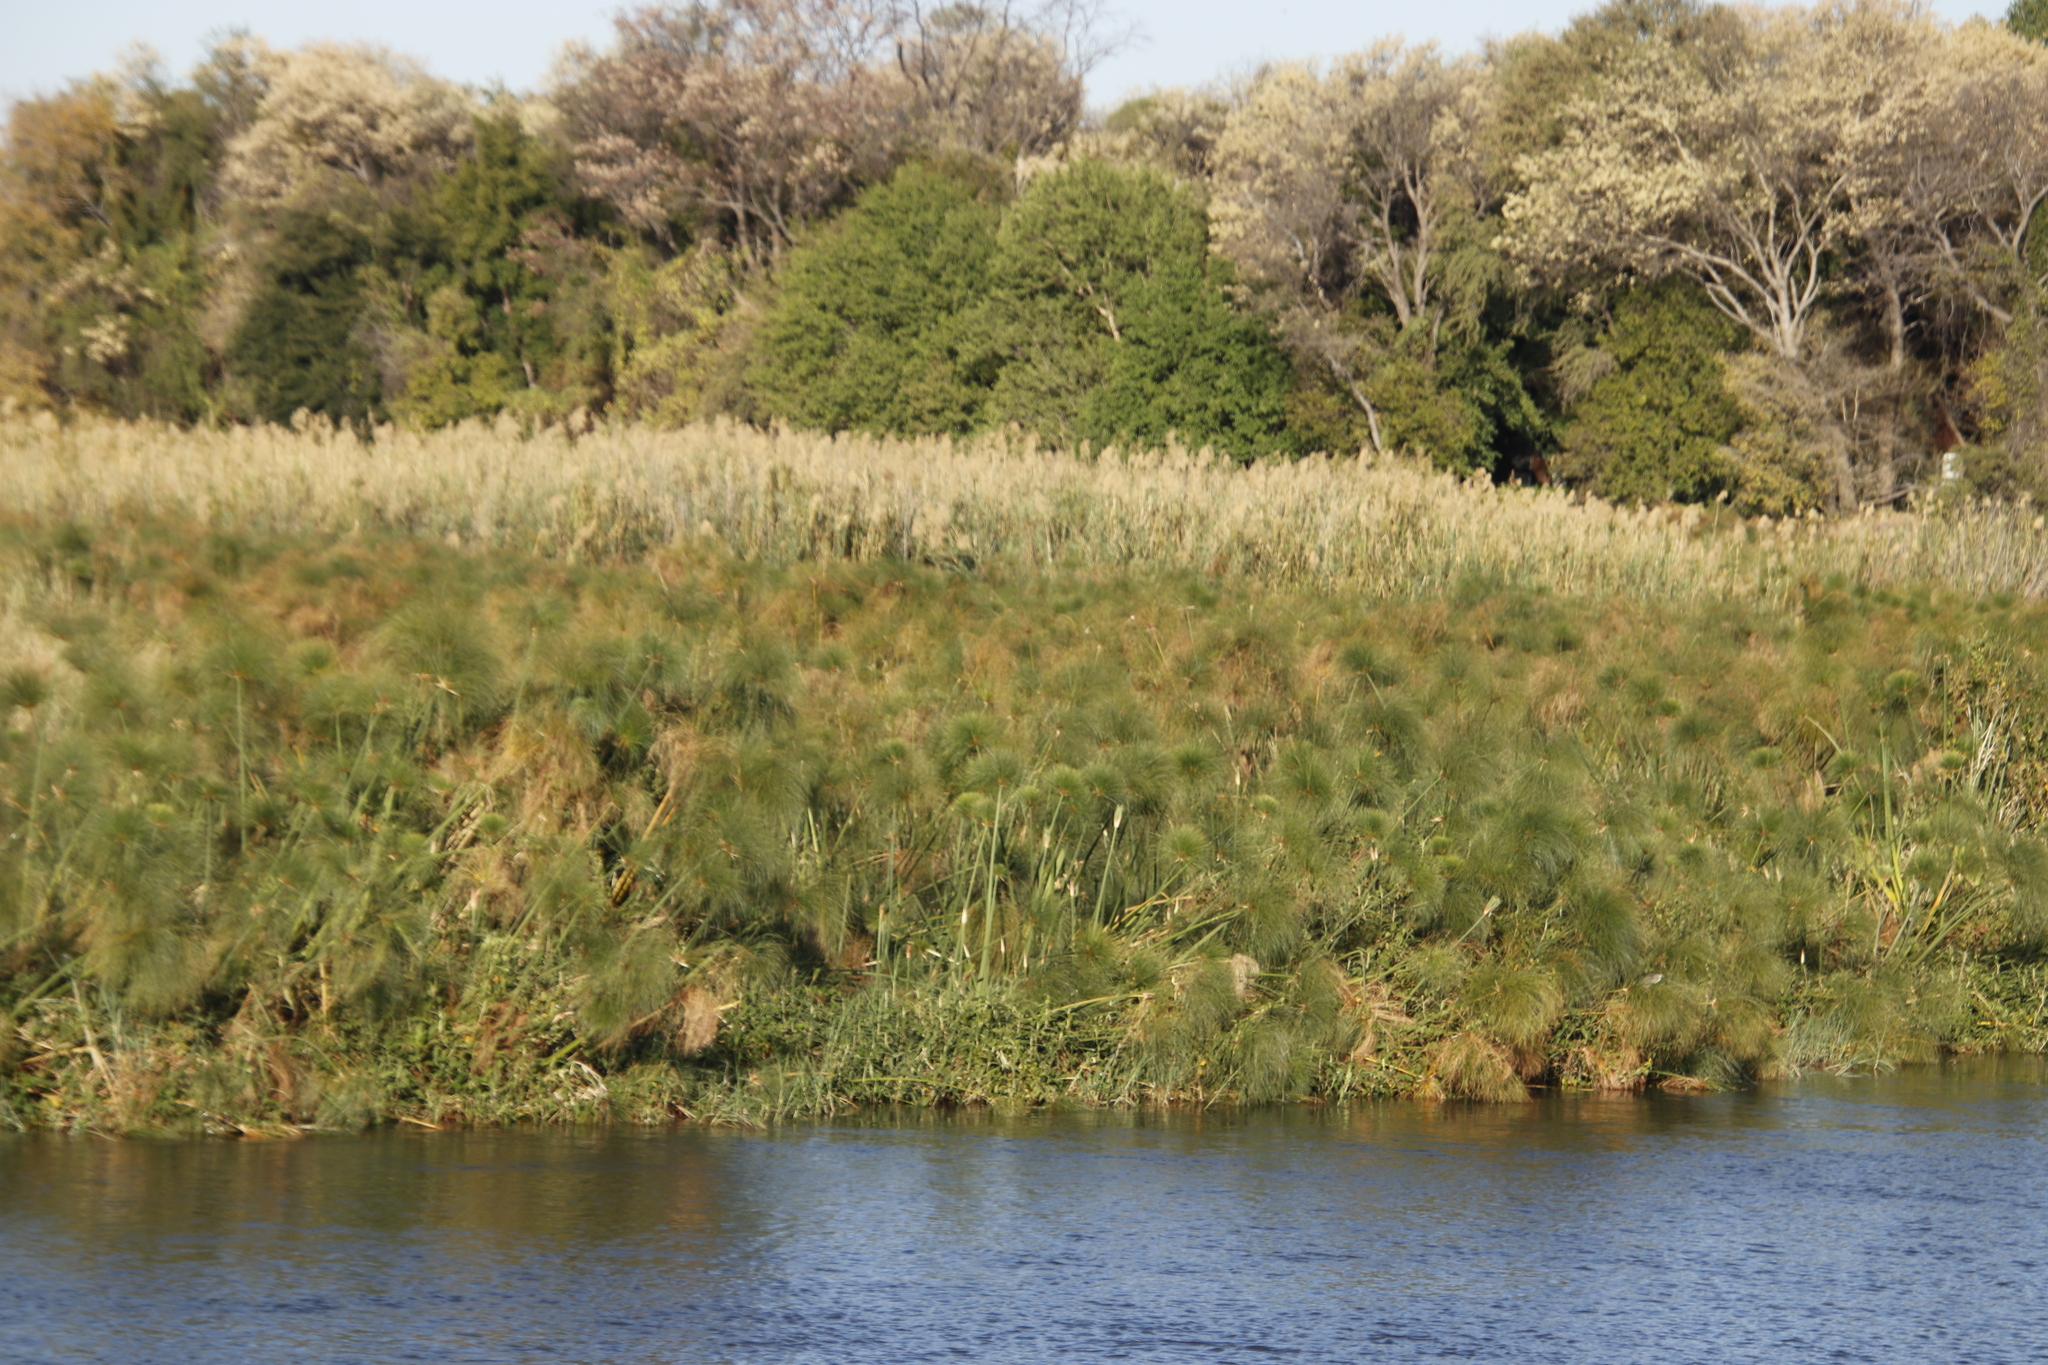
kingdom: Plantae
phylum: Tracheophyta
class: Liliopsida
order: Poales
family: Cyperaceae
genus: Cyperus
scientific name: Cyperus papyrus
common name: Papyrus
